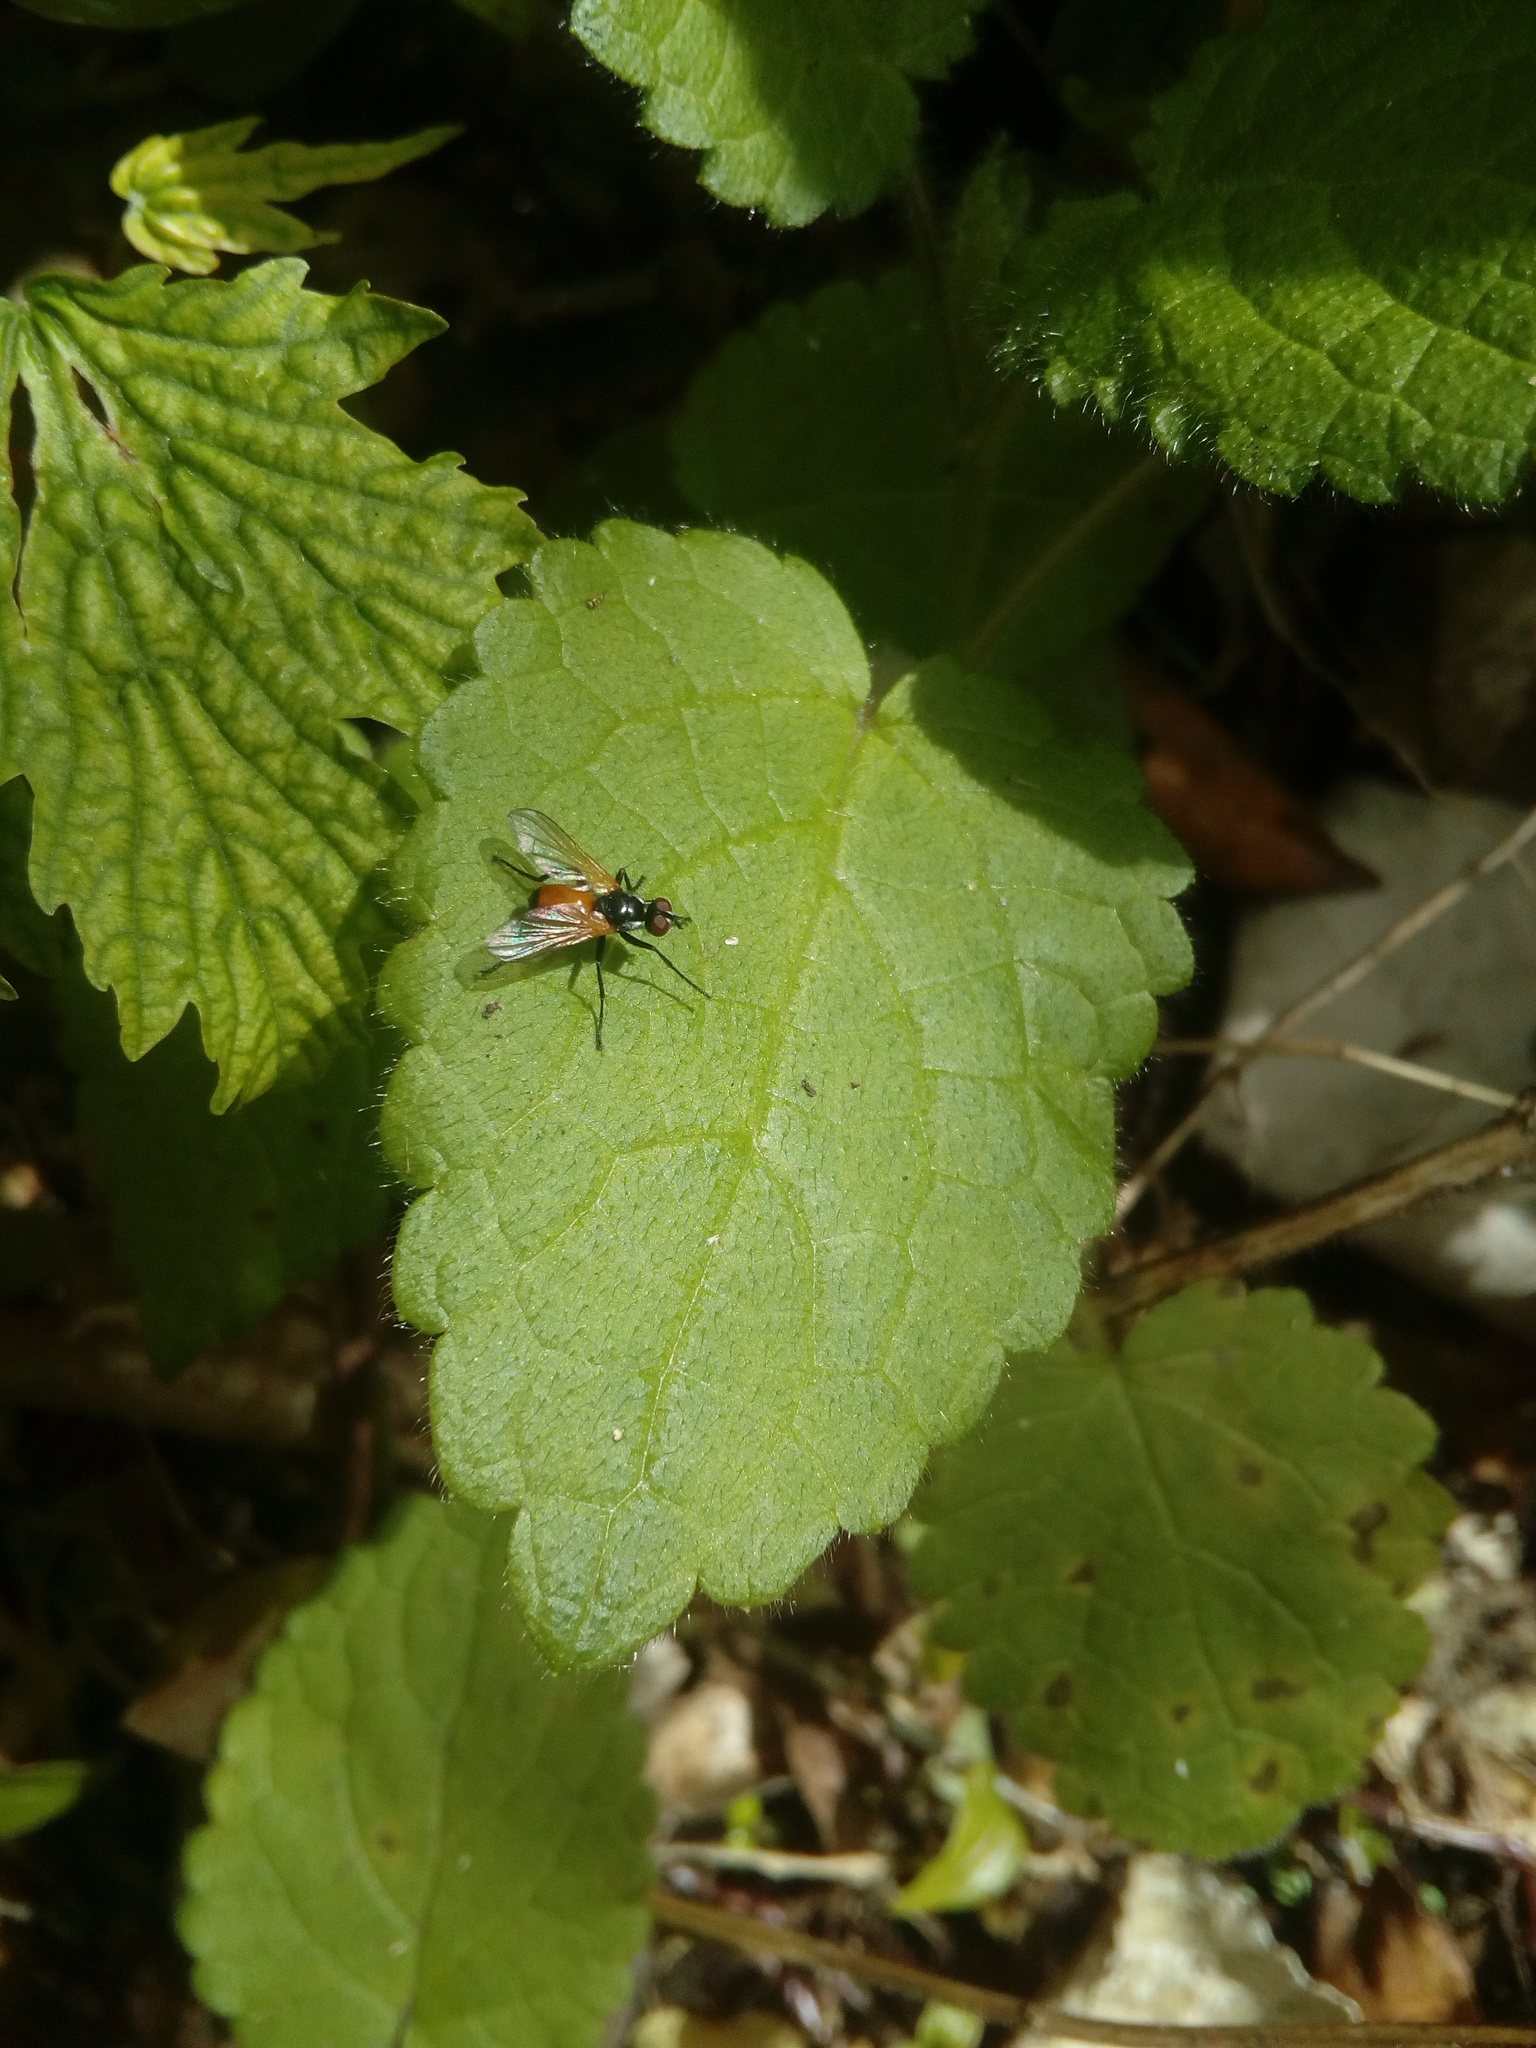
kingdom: Animalia
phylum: Arthropoda
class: Insecta
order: Diptera
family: Tachinidae
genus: Huttonobesseria
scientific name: Huttonobesseria verecunda
